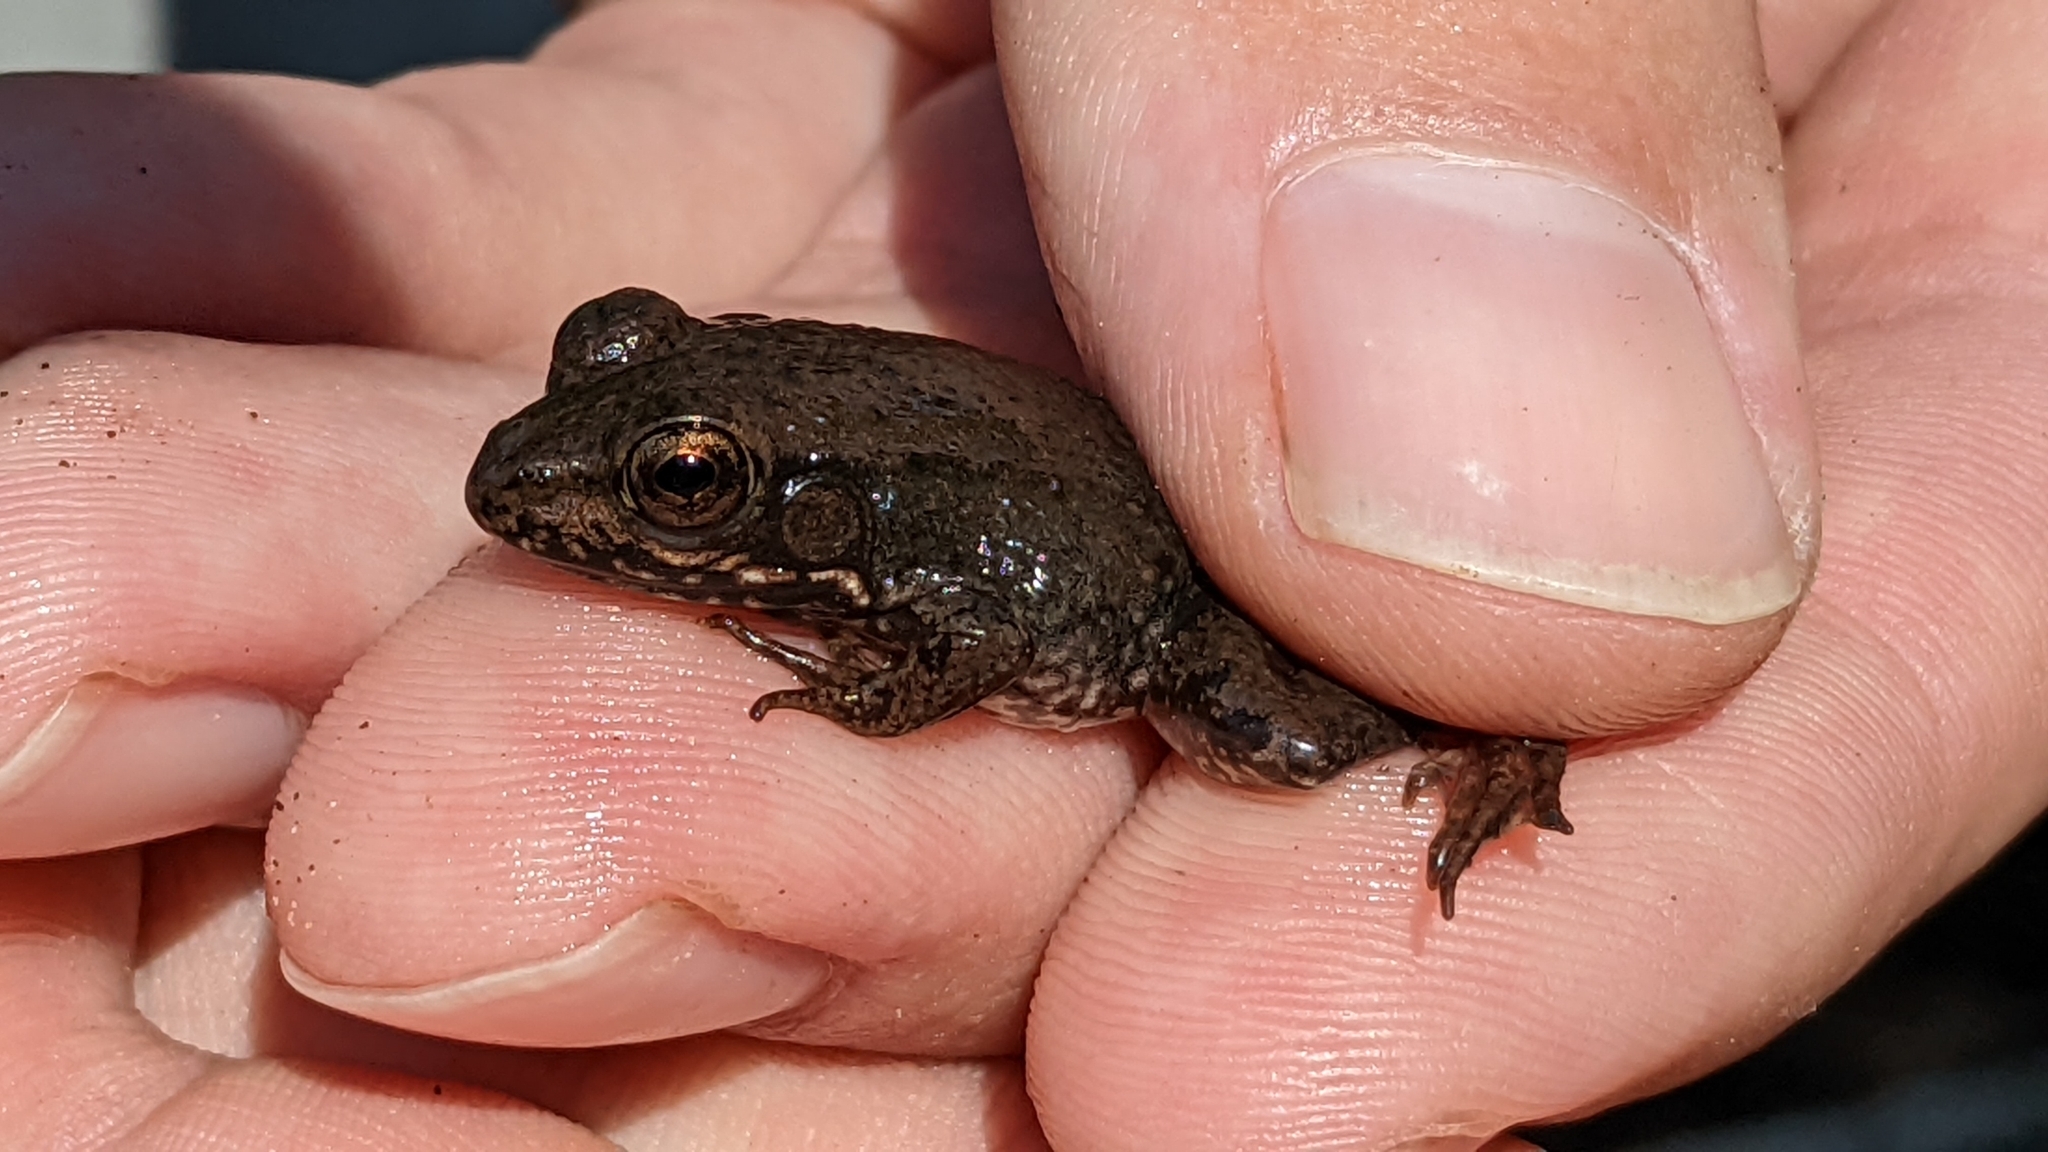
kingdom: Animalia
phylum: Chordata
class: Amphibia
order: Anura
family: Ranidae
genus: Lithobates
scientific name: Lithobates clamitans
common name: Green frog
